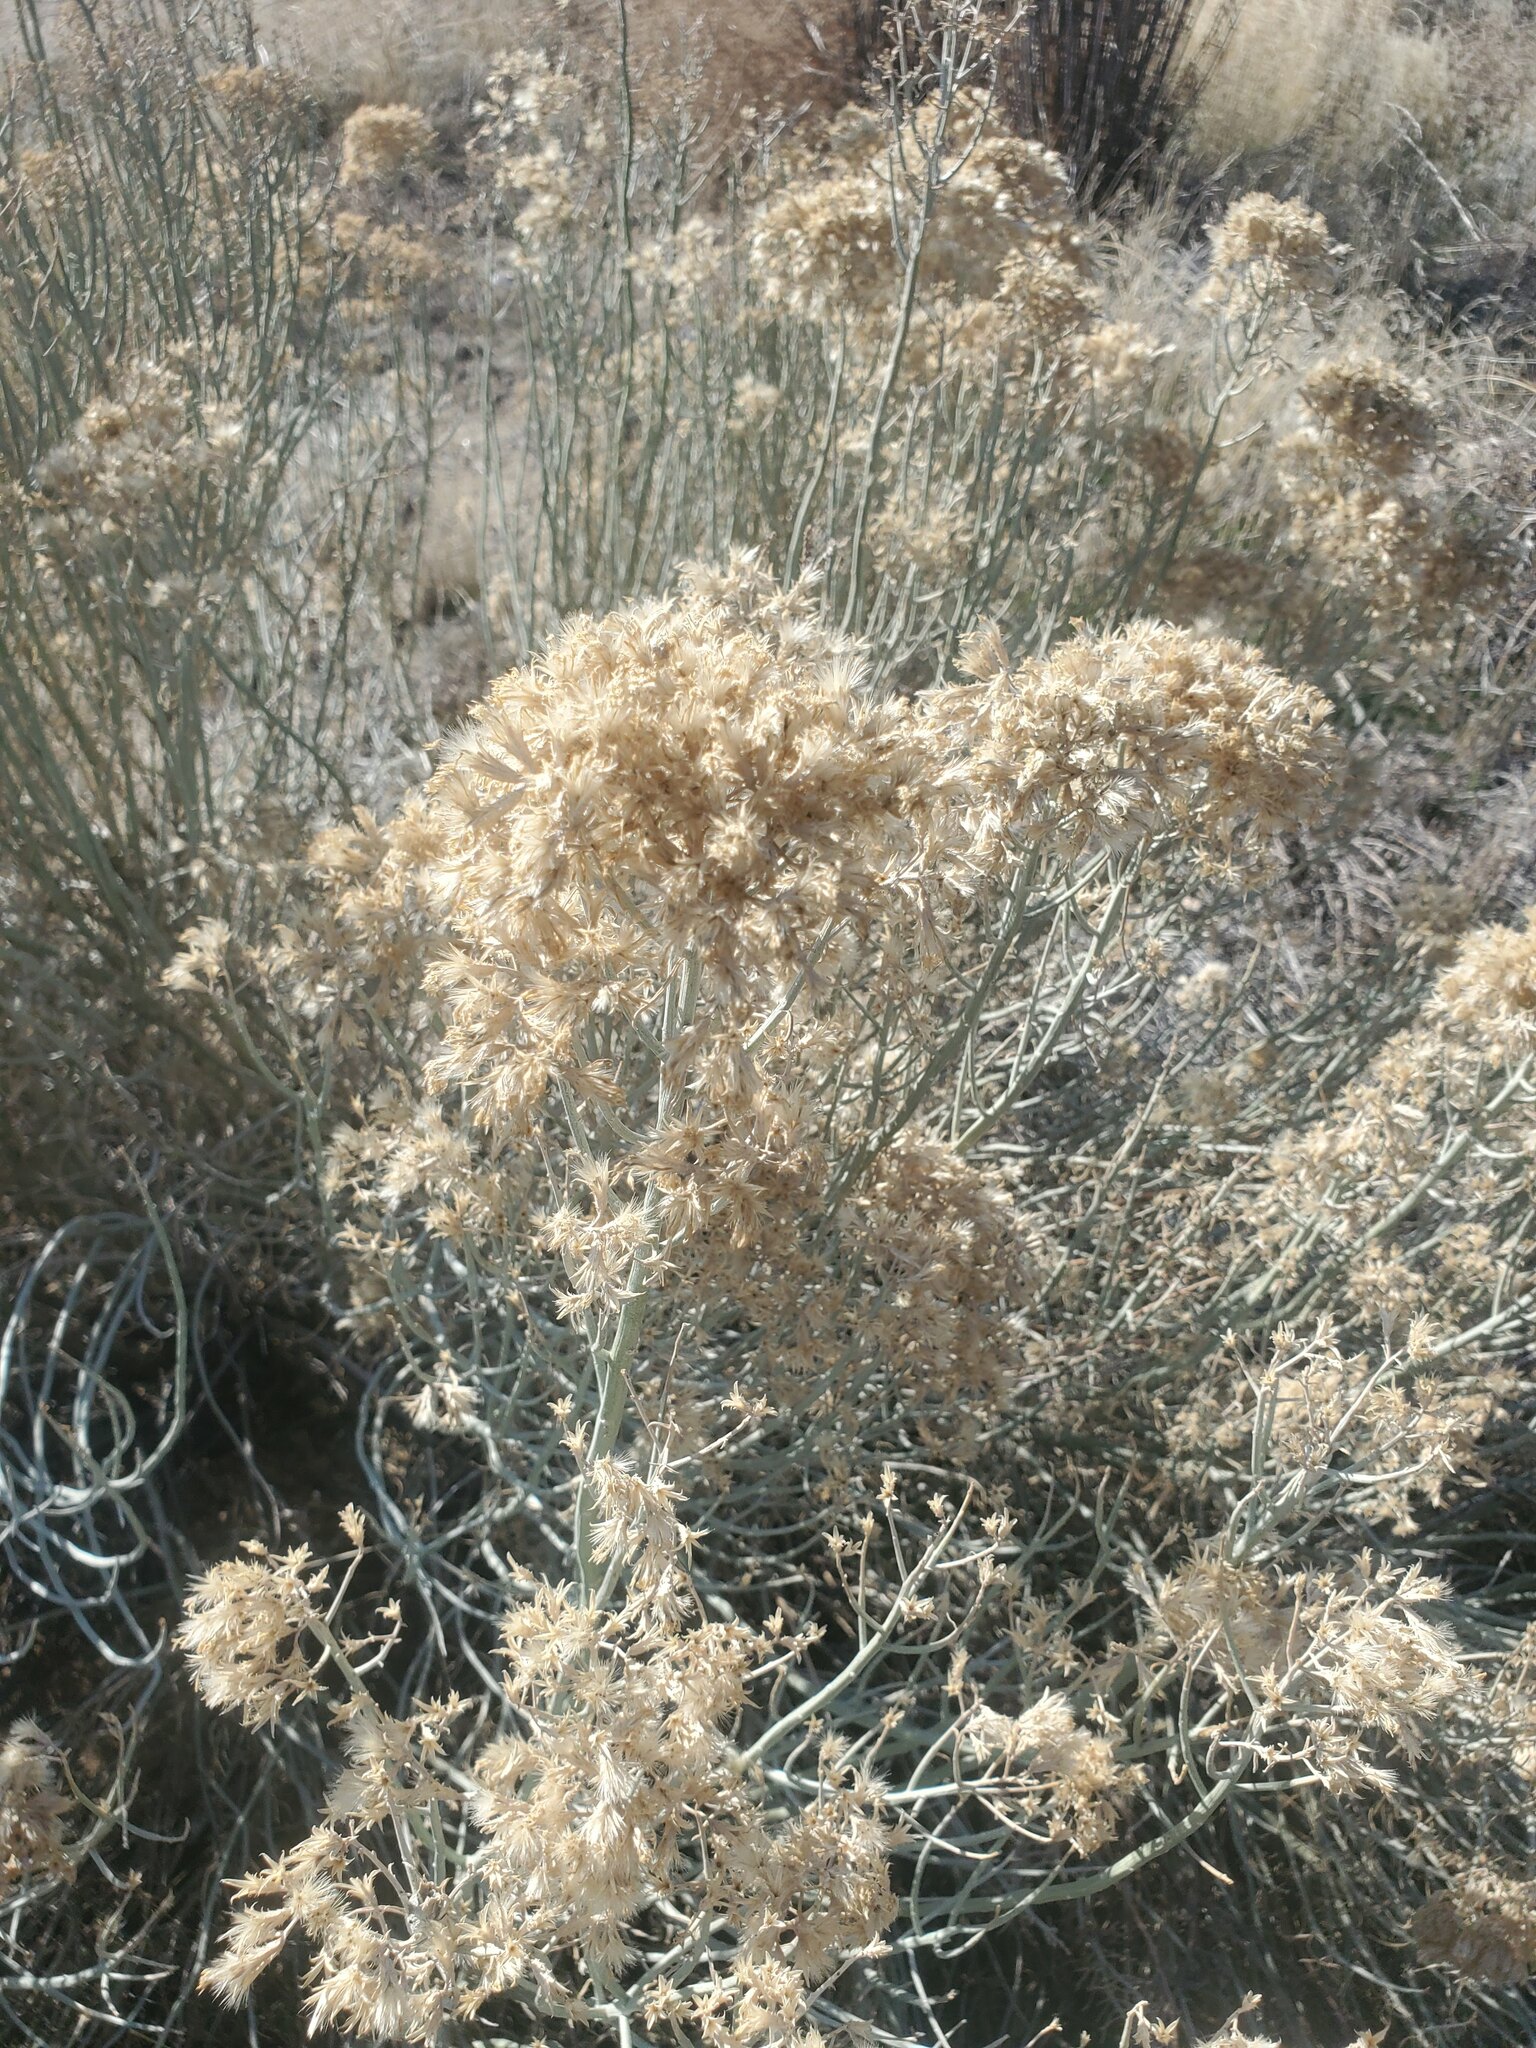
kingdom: Plantae
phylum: Tracheophyta
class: Magnoliopsida
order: Asterales
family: Asteraceae
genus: Ericameria
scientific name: Ericameria nauseosa
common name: Rubber rabbitbrush
